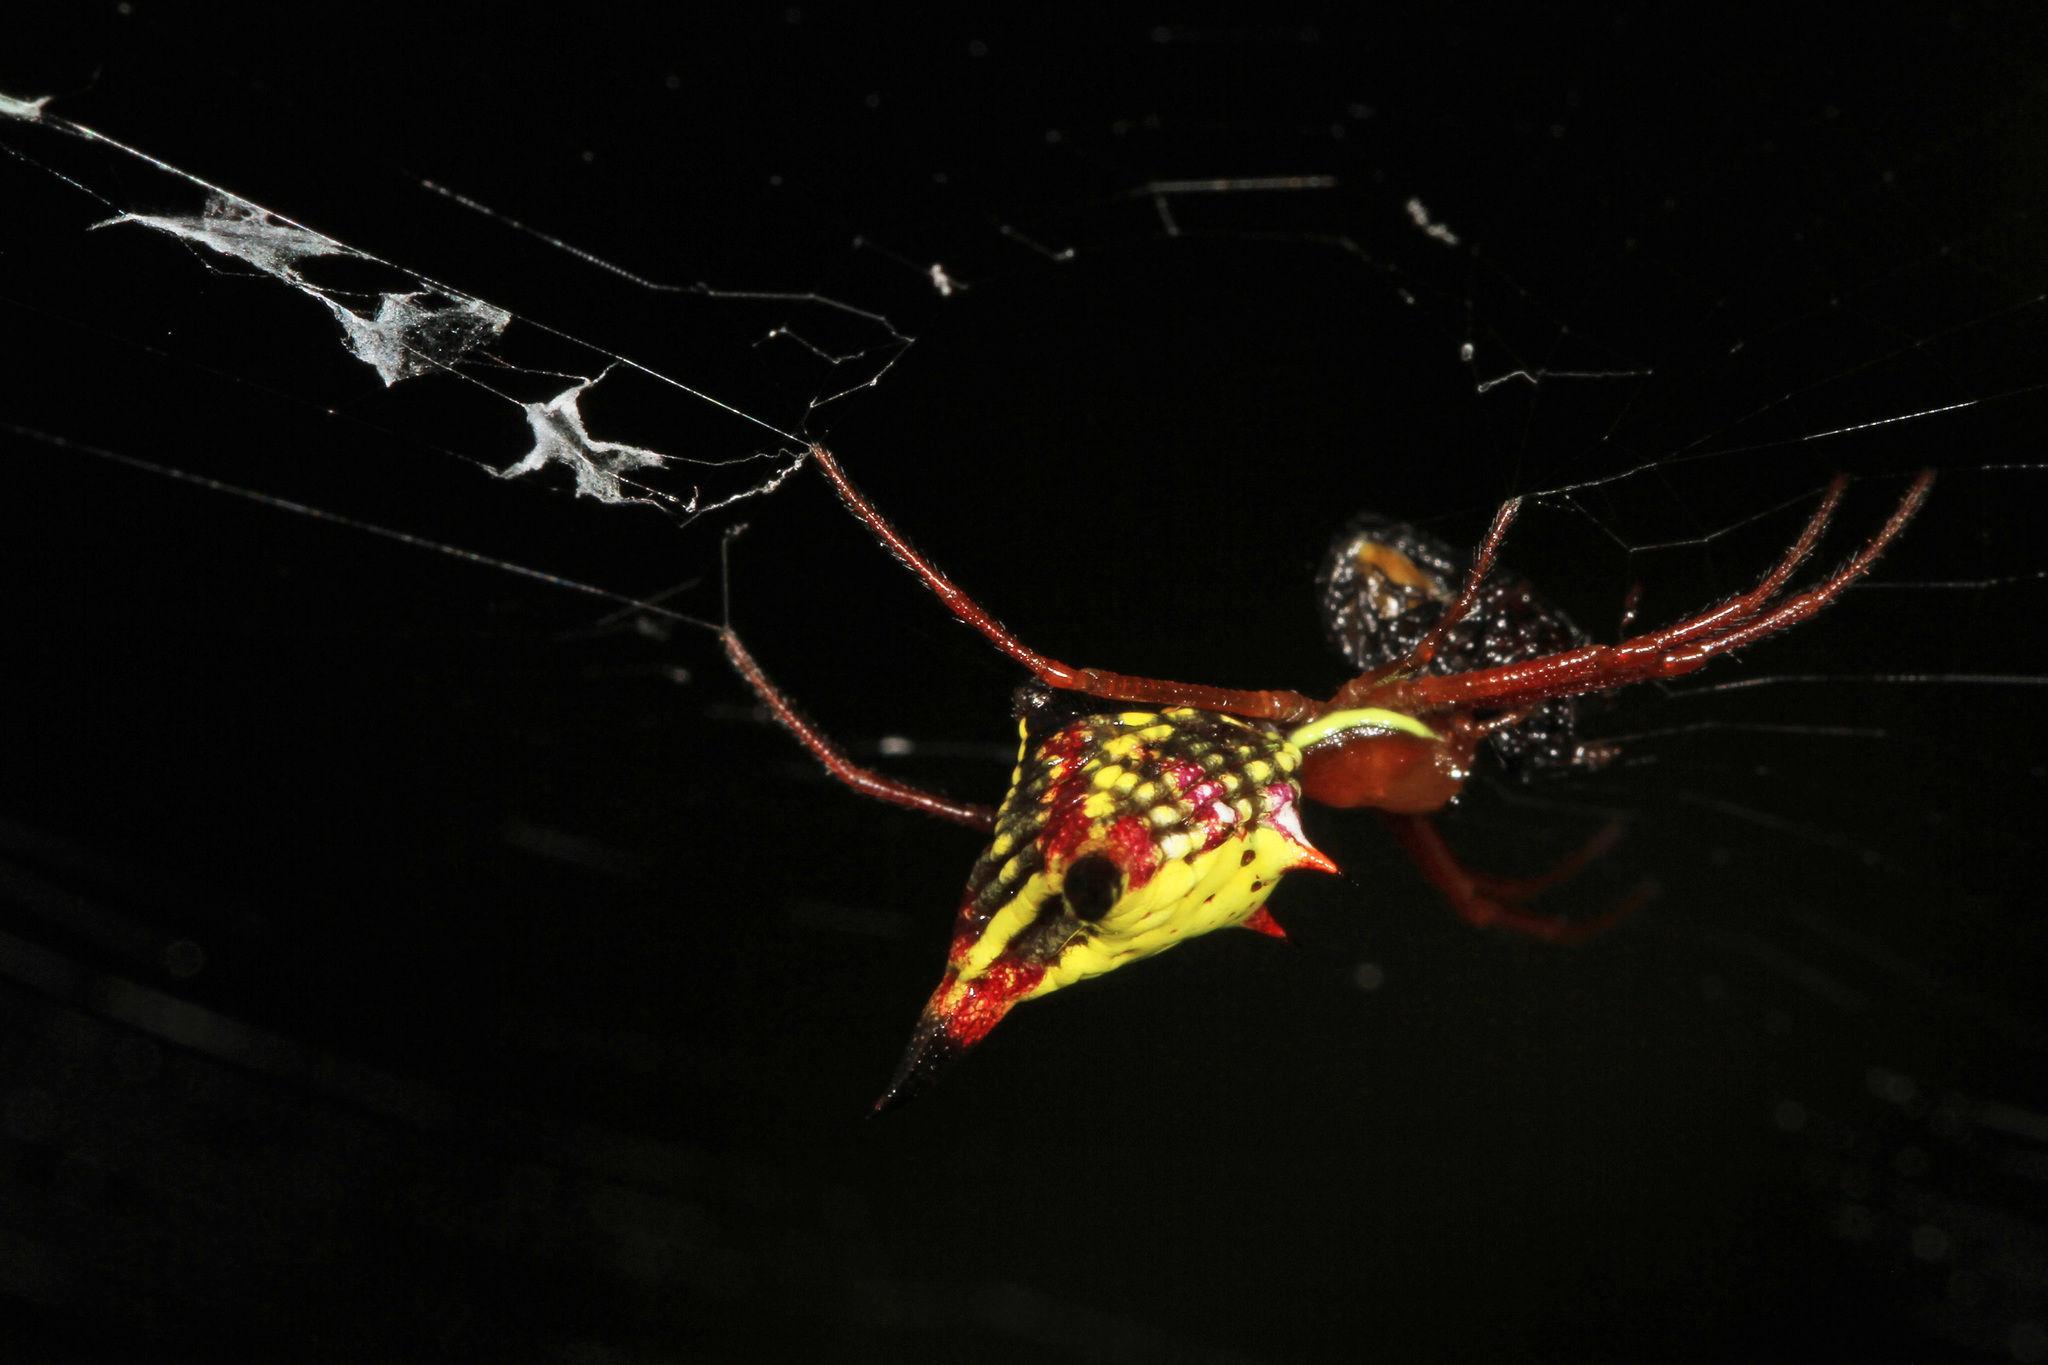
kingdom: Animalia
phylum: Arthropoda
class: Arachnida
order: Araneae
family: Araneidae
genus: Micrathena
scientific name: Micrathena sagittata
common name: Orb weavers
